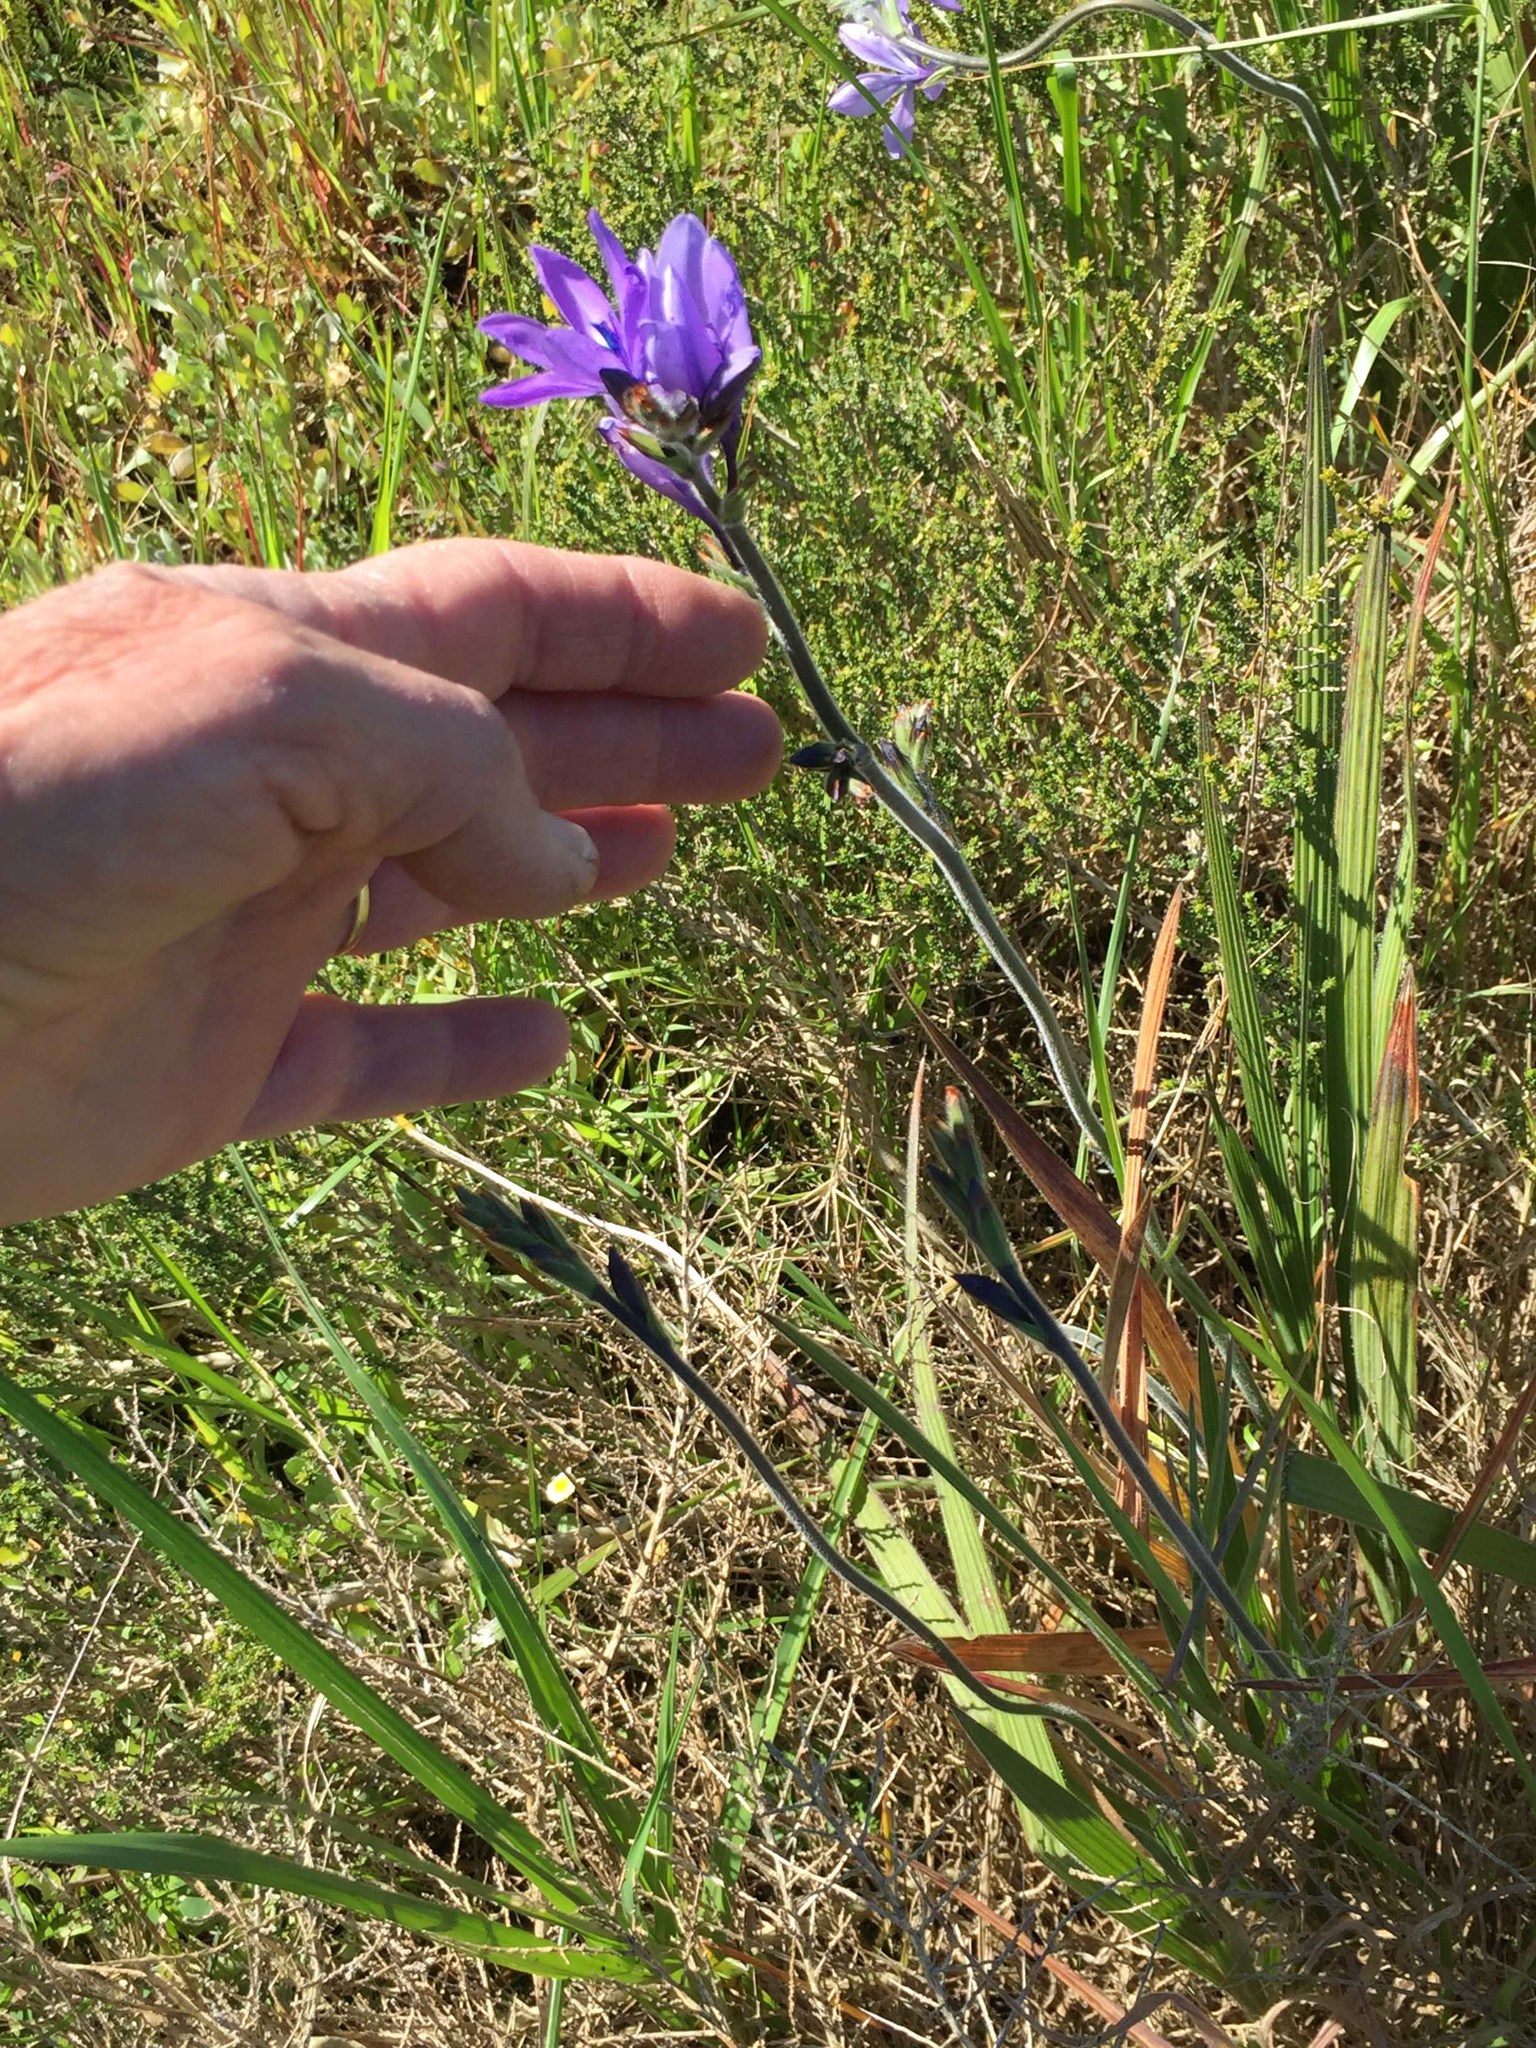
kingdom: Plantae
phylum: Tracheophyta
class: Liliopsida
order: Asparagales
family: Iridaceae
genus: Babiana
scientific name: Babiana nervosa
